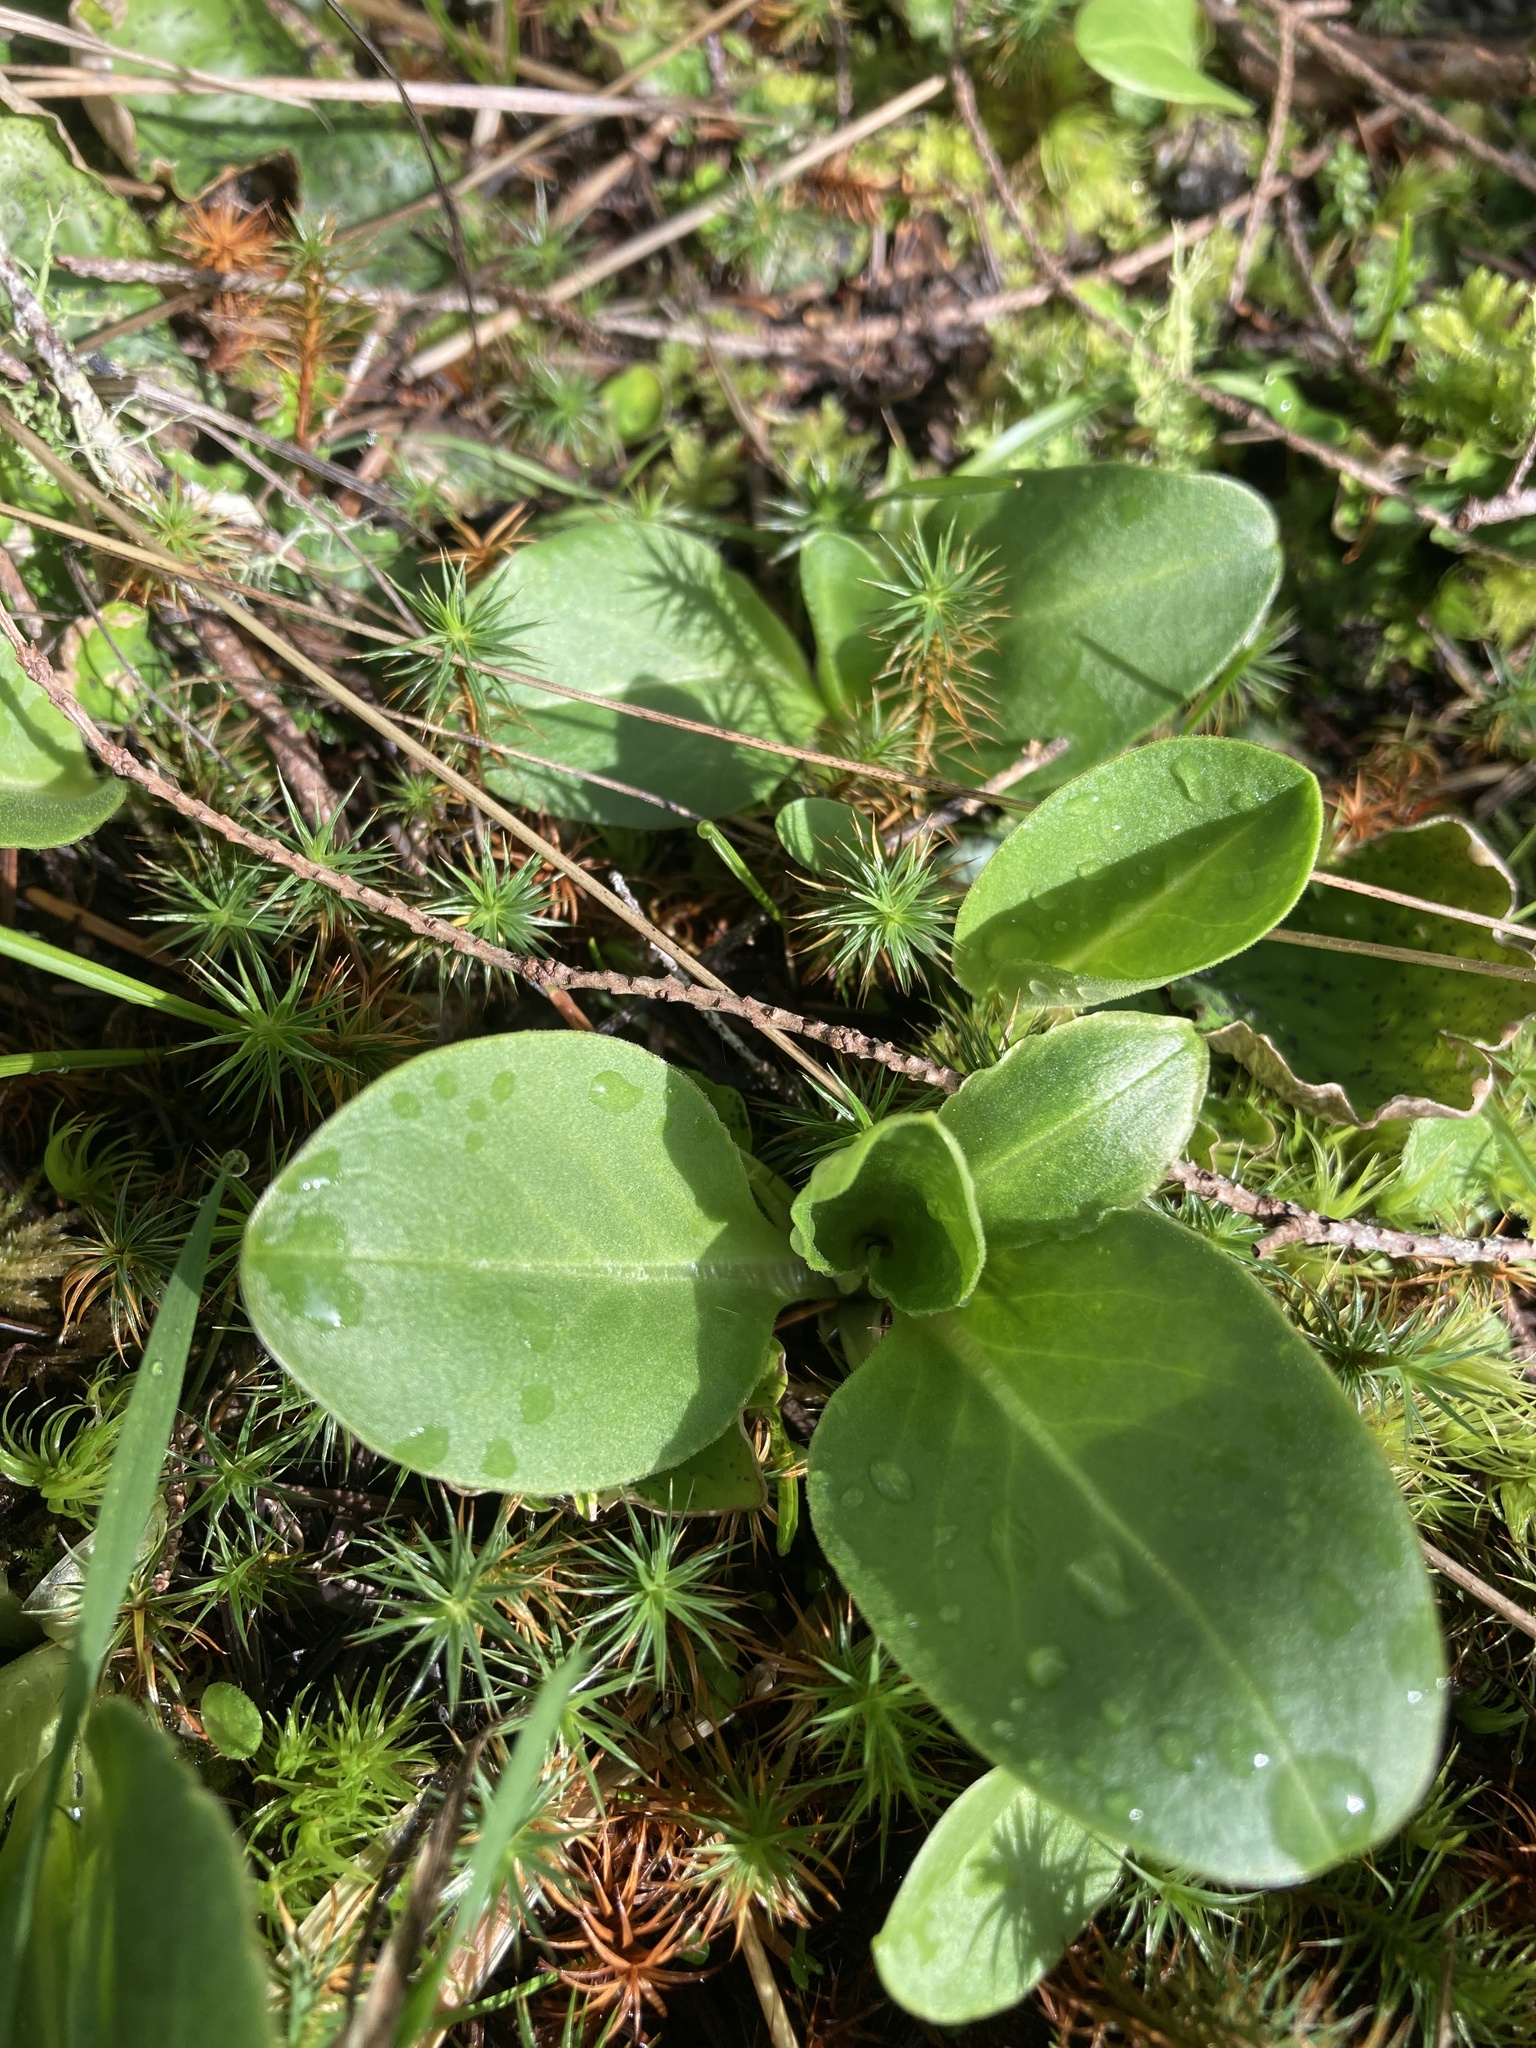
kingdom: Plantae
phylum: Tracheophyta
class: Magnoliopsida
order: Ericales
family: Primulaceae
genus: Dodecatheon
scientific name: Dodecatheon hendersonii
